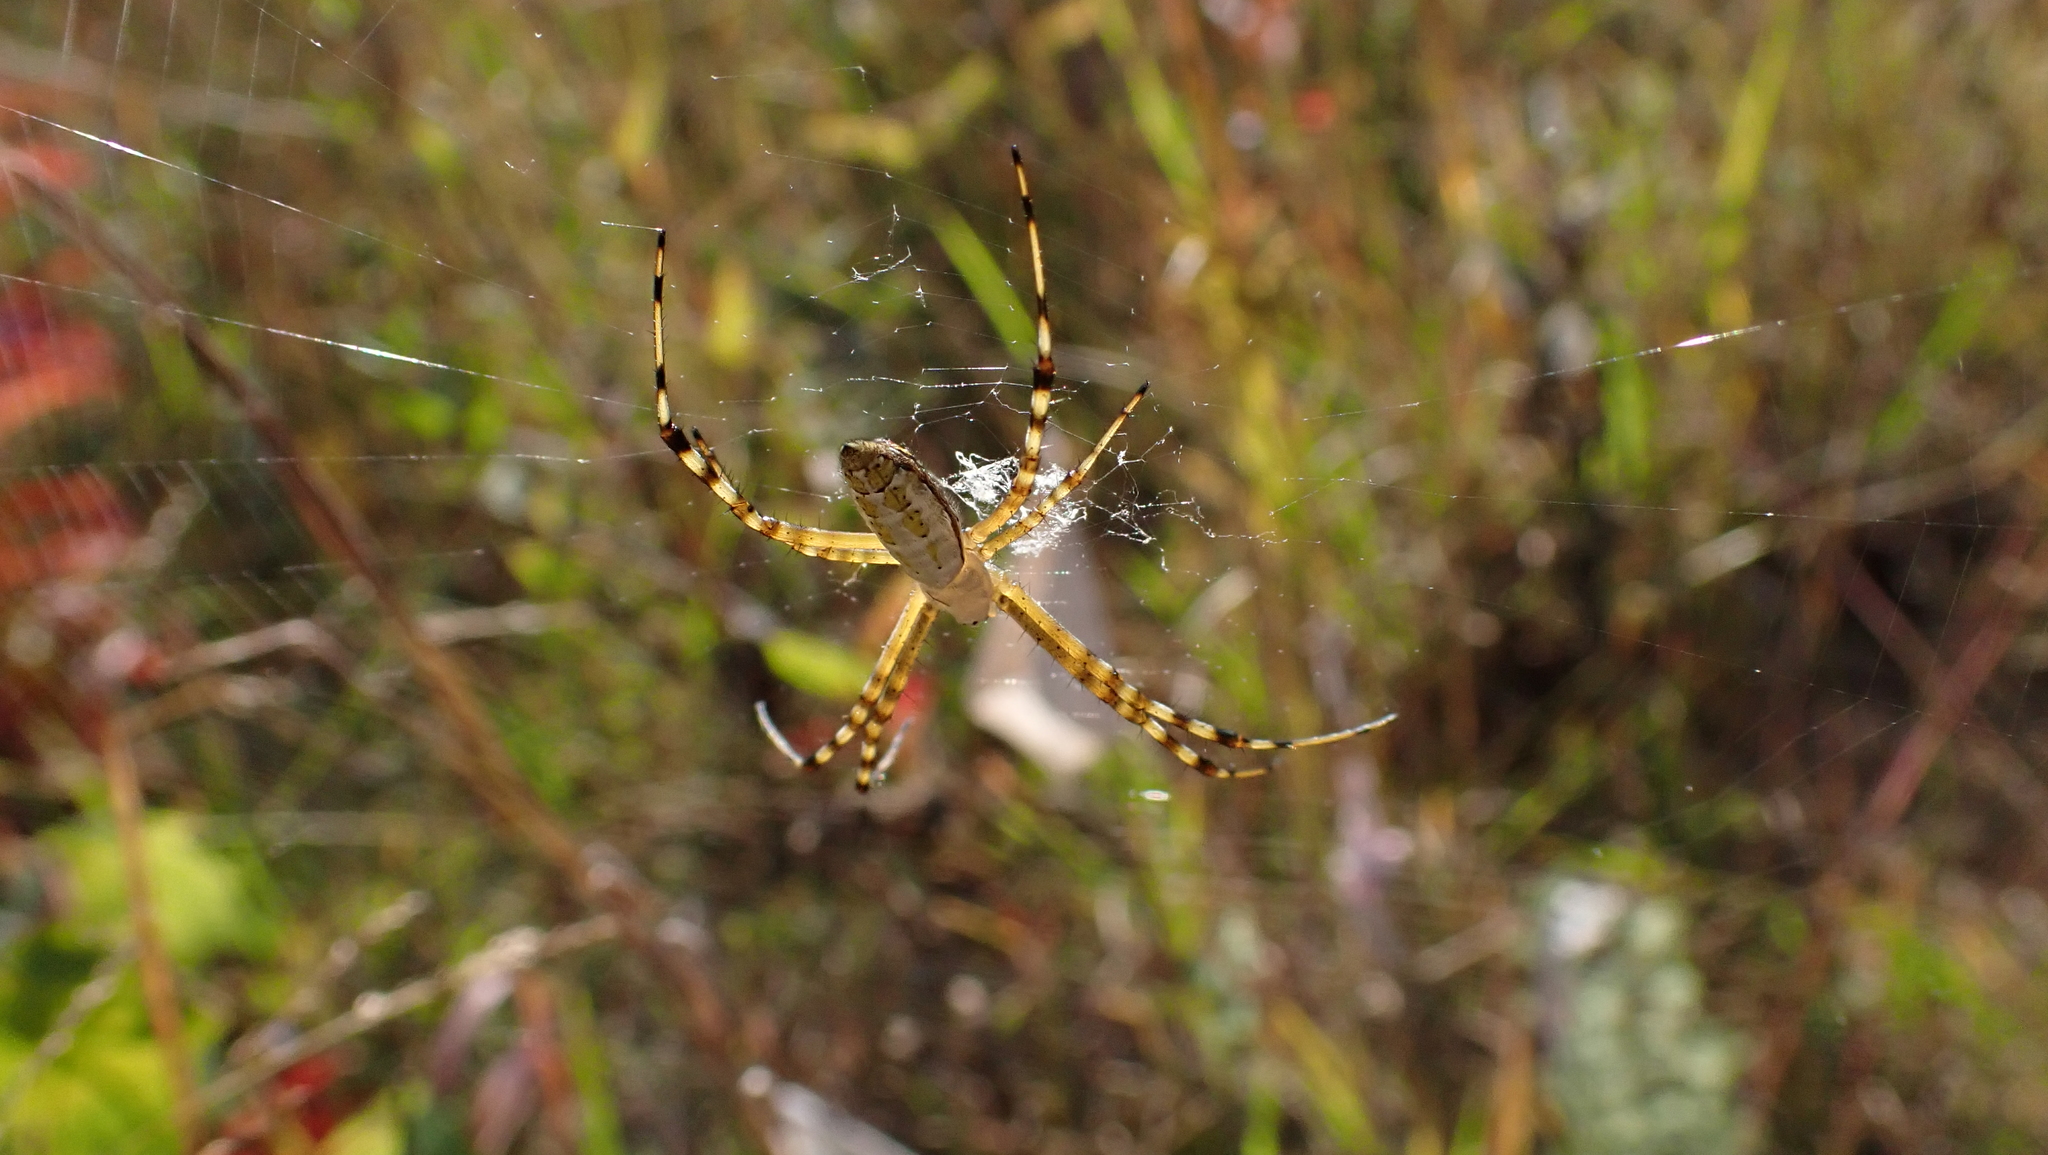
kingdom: Animalia
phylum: Arthropoda
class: Arachnida
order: Araneae
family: Araneidae
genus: Argiope
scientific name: Argiope trifasciata
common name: Banded garden spider
